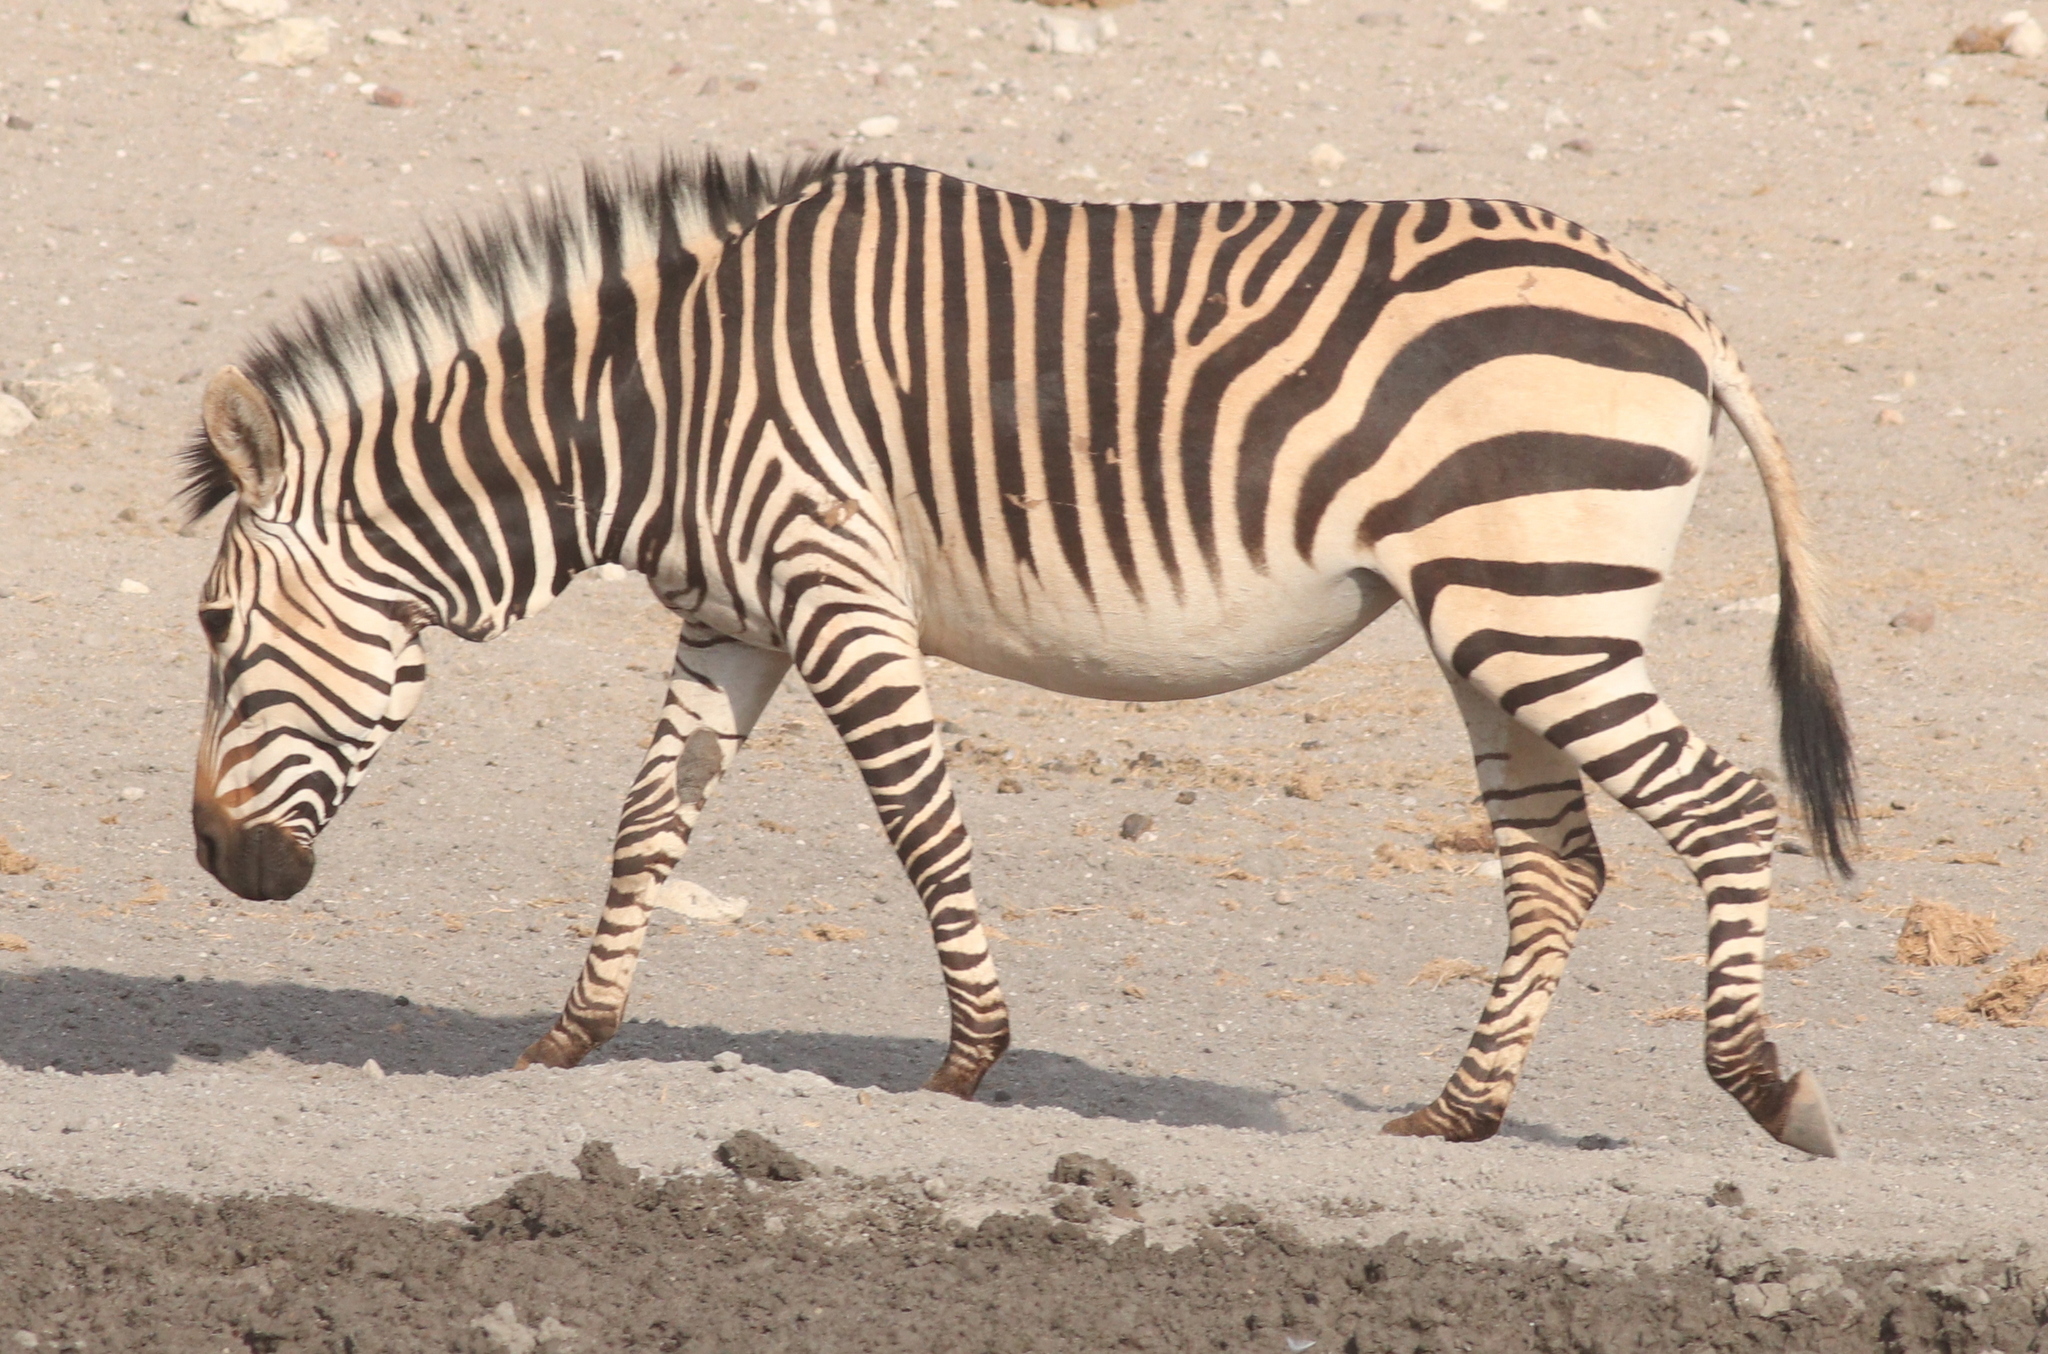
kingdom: Animalia
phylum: Chordata
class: Mammalia
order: Perissodactyla
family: Equidae
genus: Equus
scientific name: Equus hartmannae
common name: Hartmann's mountain zebra
